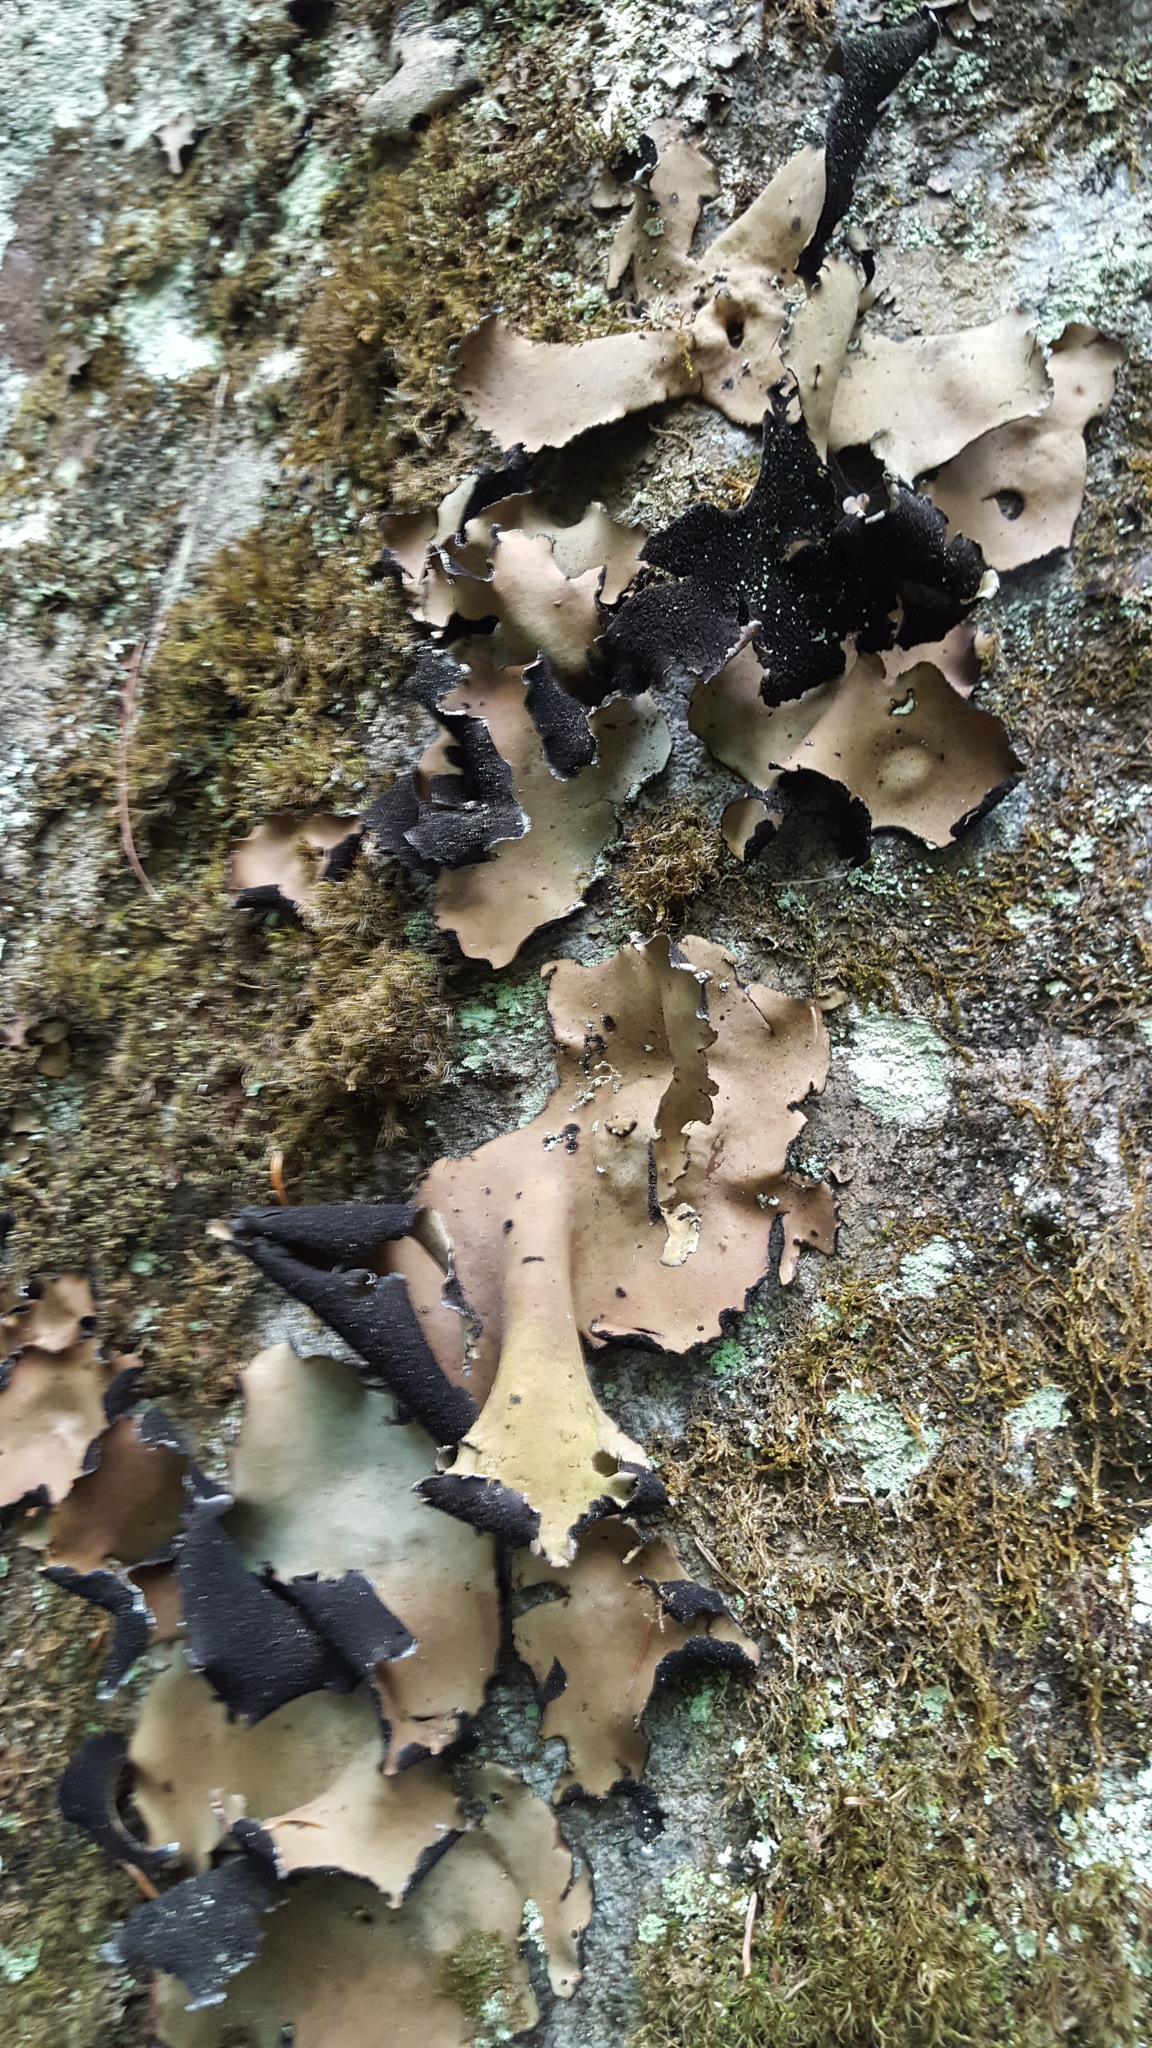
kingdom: Fungi
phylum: Ascomycota
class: Lecanoromycetes
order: Umbilicariales
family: Umbilicariaceae
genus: Umbilicaria
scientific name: Umbilicaria mammulata
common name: Smooth rock tripe
